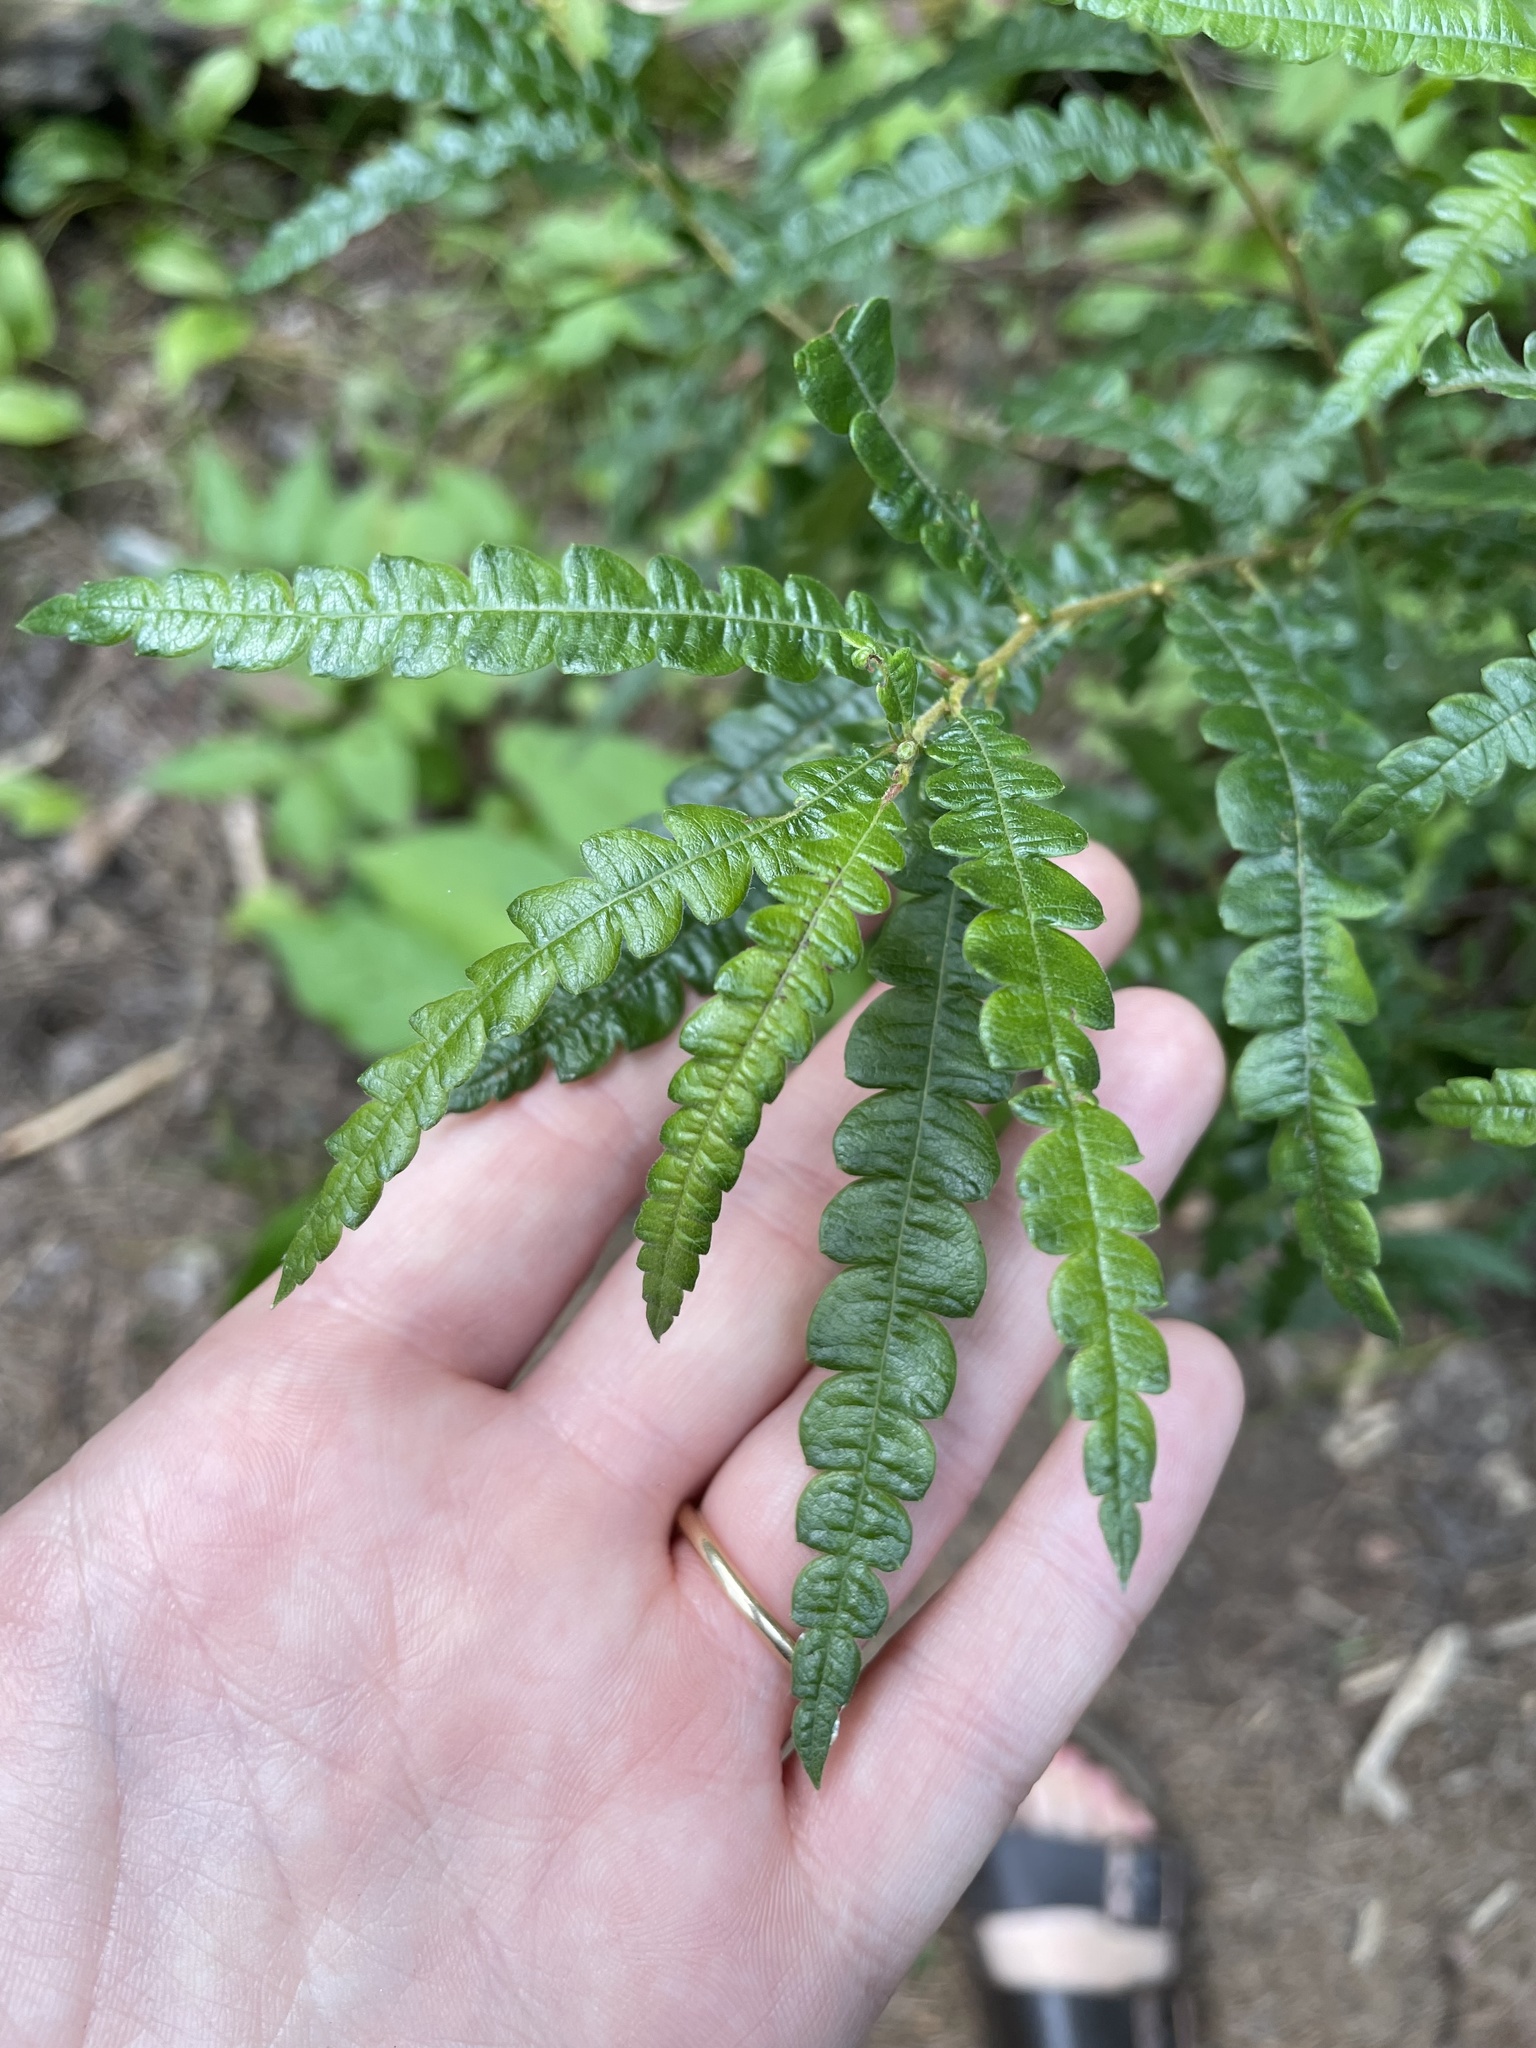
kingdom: Plantae
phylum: Tracheophyta
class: Magnoliopsida
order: Fagales
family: Myricaceae
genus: Comptonia
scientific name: Comptonia peregrina
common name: Sweet-fern
